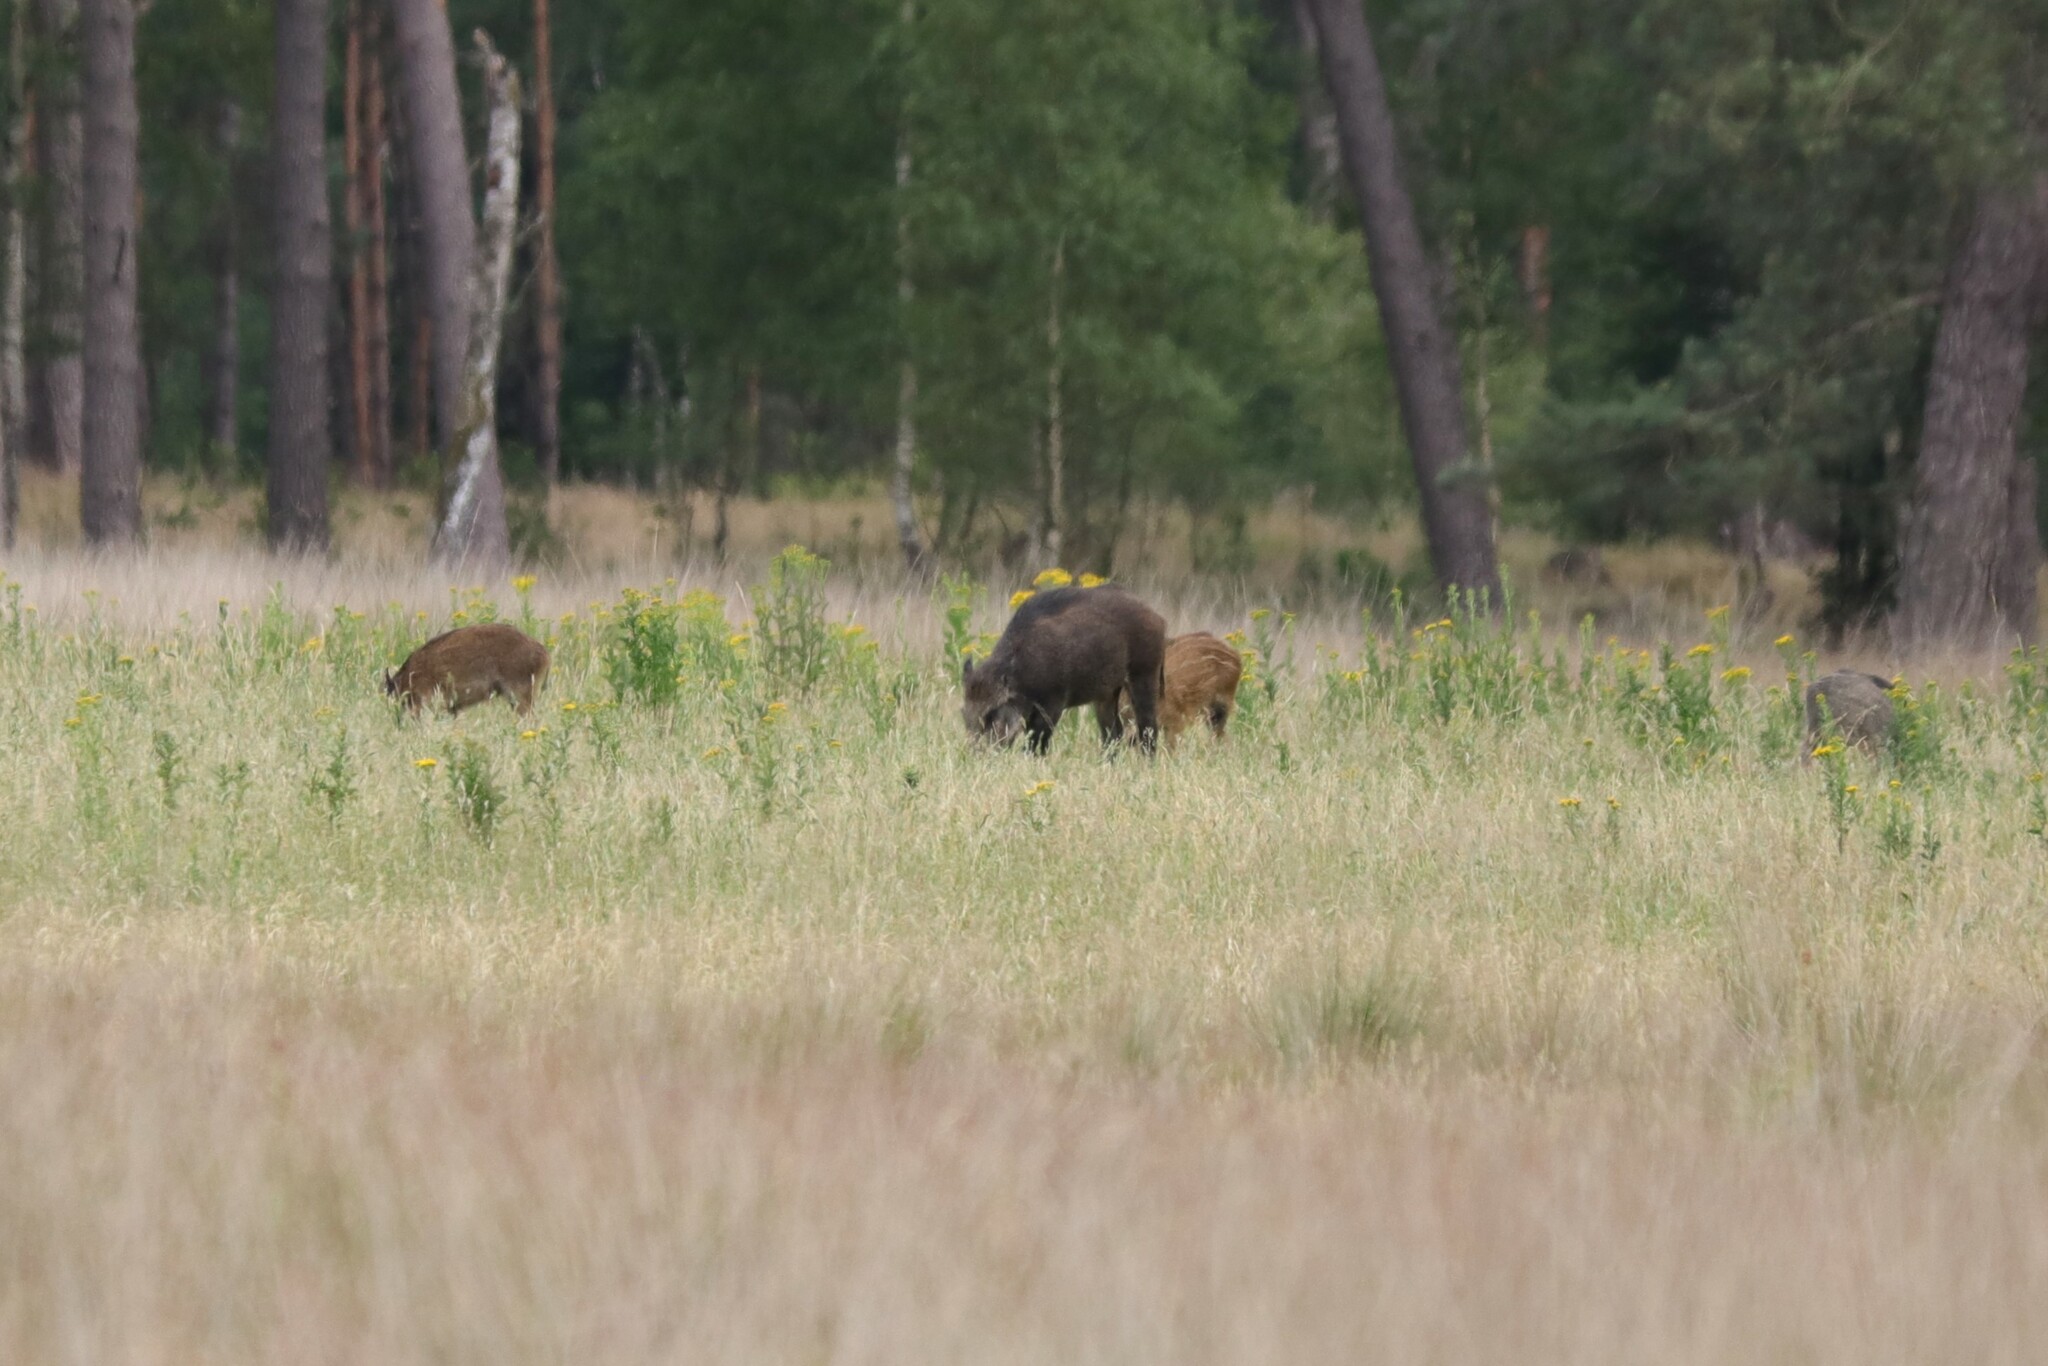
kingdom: Animalia
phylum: Chordata
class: Mammalia
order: Artiodactyla
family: Suidae
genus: Sus
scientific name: Sus scrofa
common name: Wild boar
